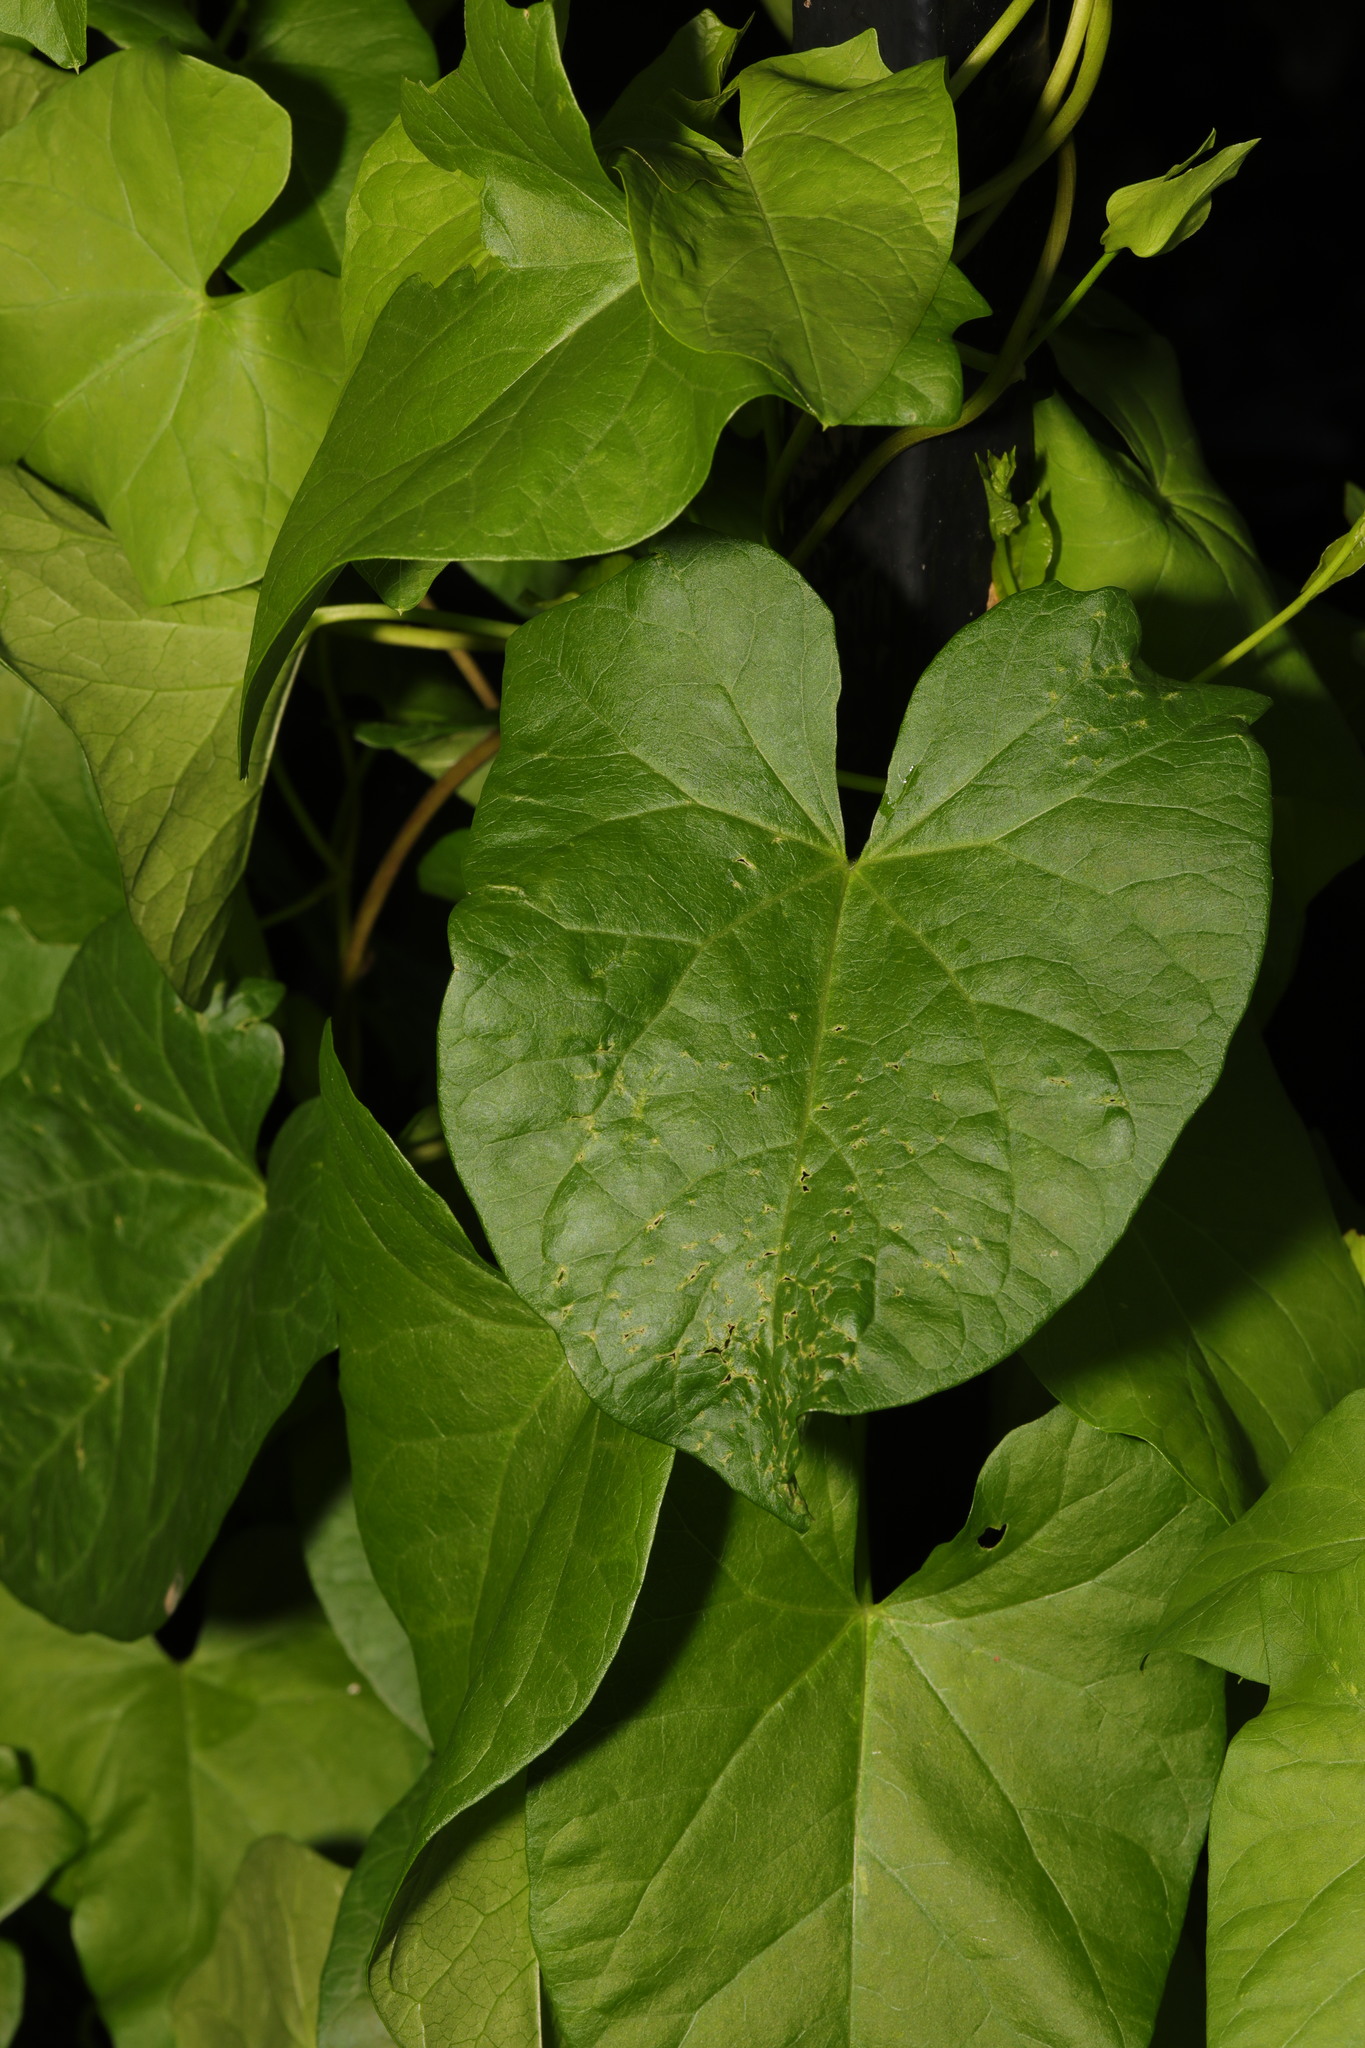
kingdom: Plantae
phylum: Tracheophyta
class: Magnoliopsida
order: Solanales
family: Convolvulaceae
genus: Calystegia
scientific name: Calystegia sepium
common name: Hedge bindweed
